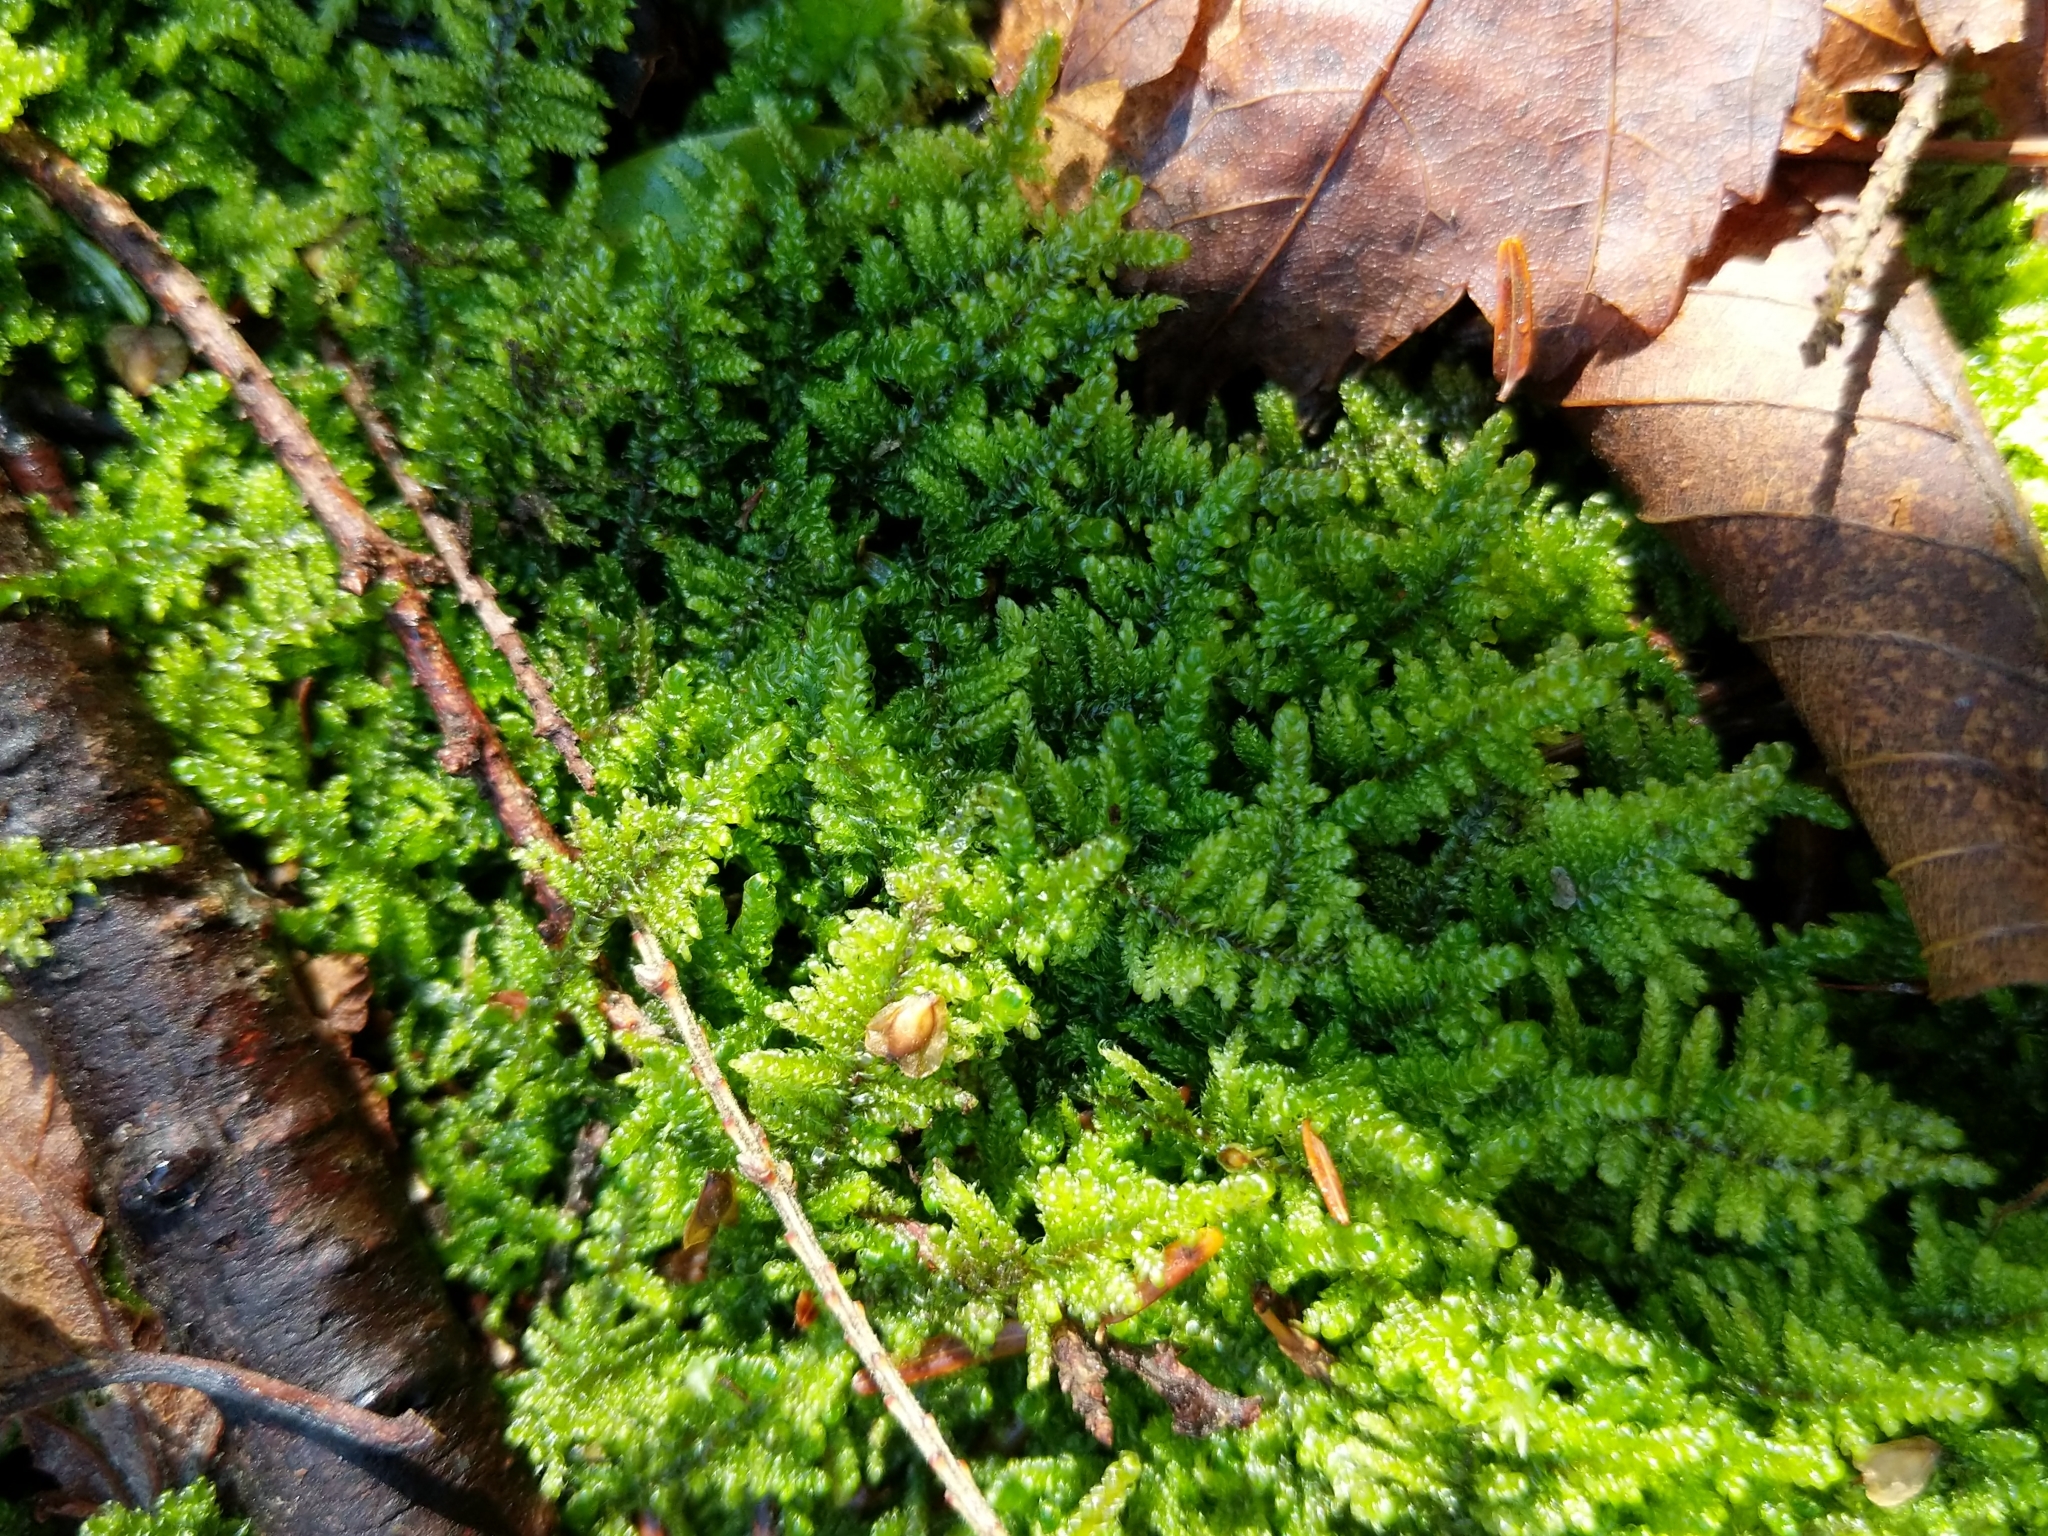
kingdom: Plantae
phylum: Bryophyta
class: Bryopsida
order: Hypnales
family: Callicladiaceae
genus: Callicladium
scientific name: Callicladium imponens
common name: Brocade moss
